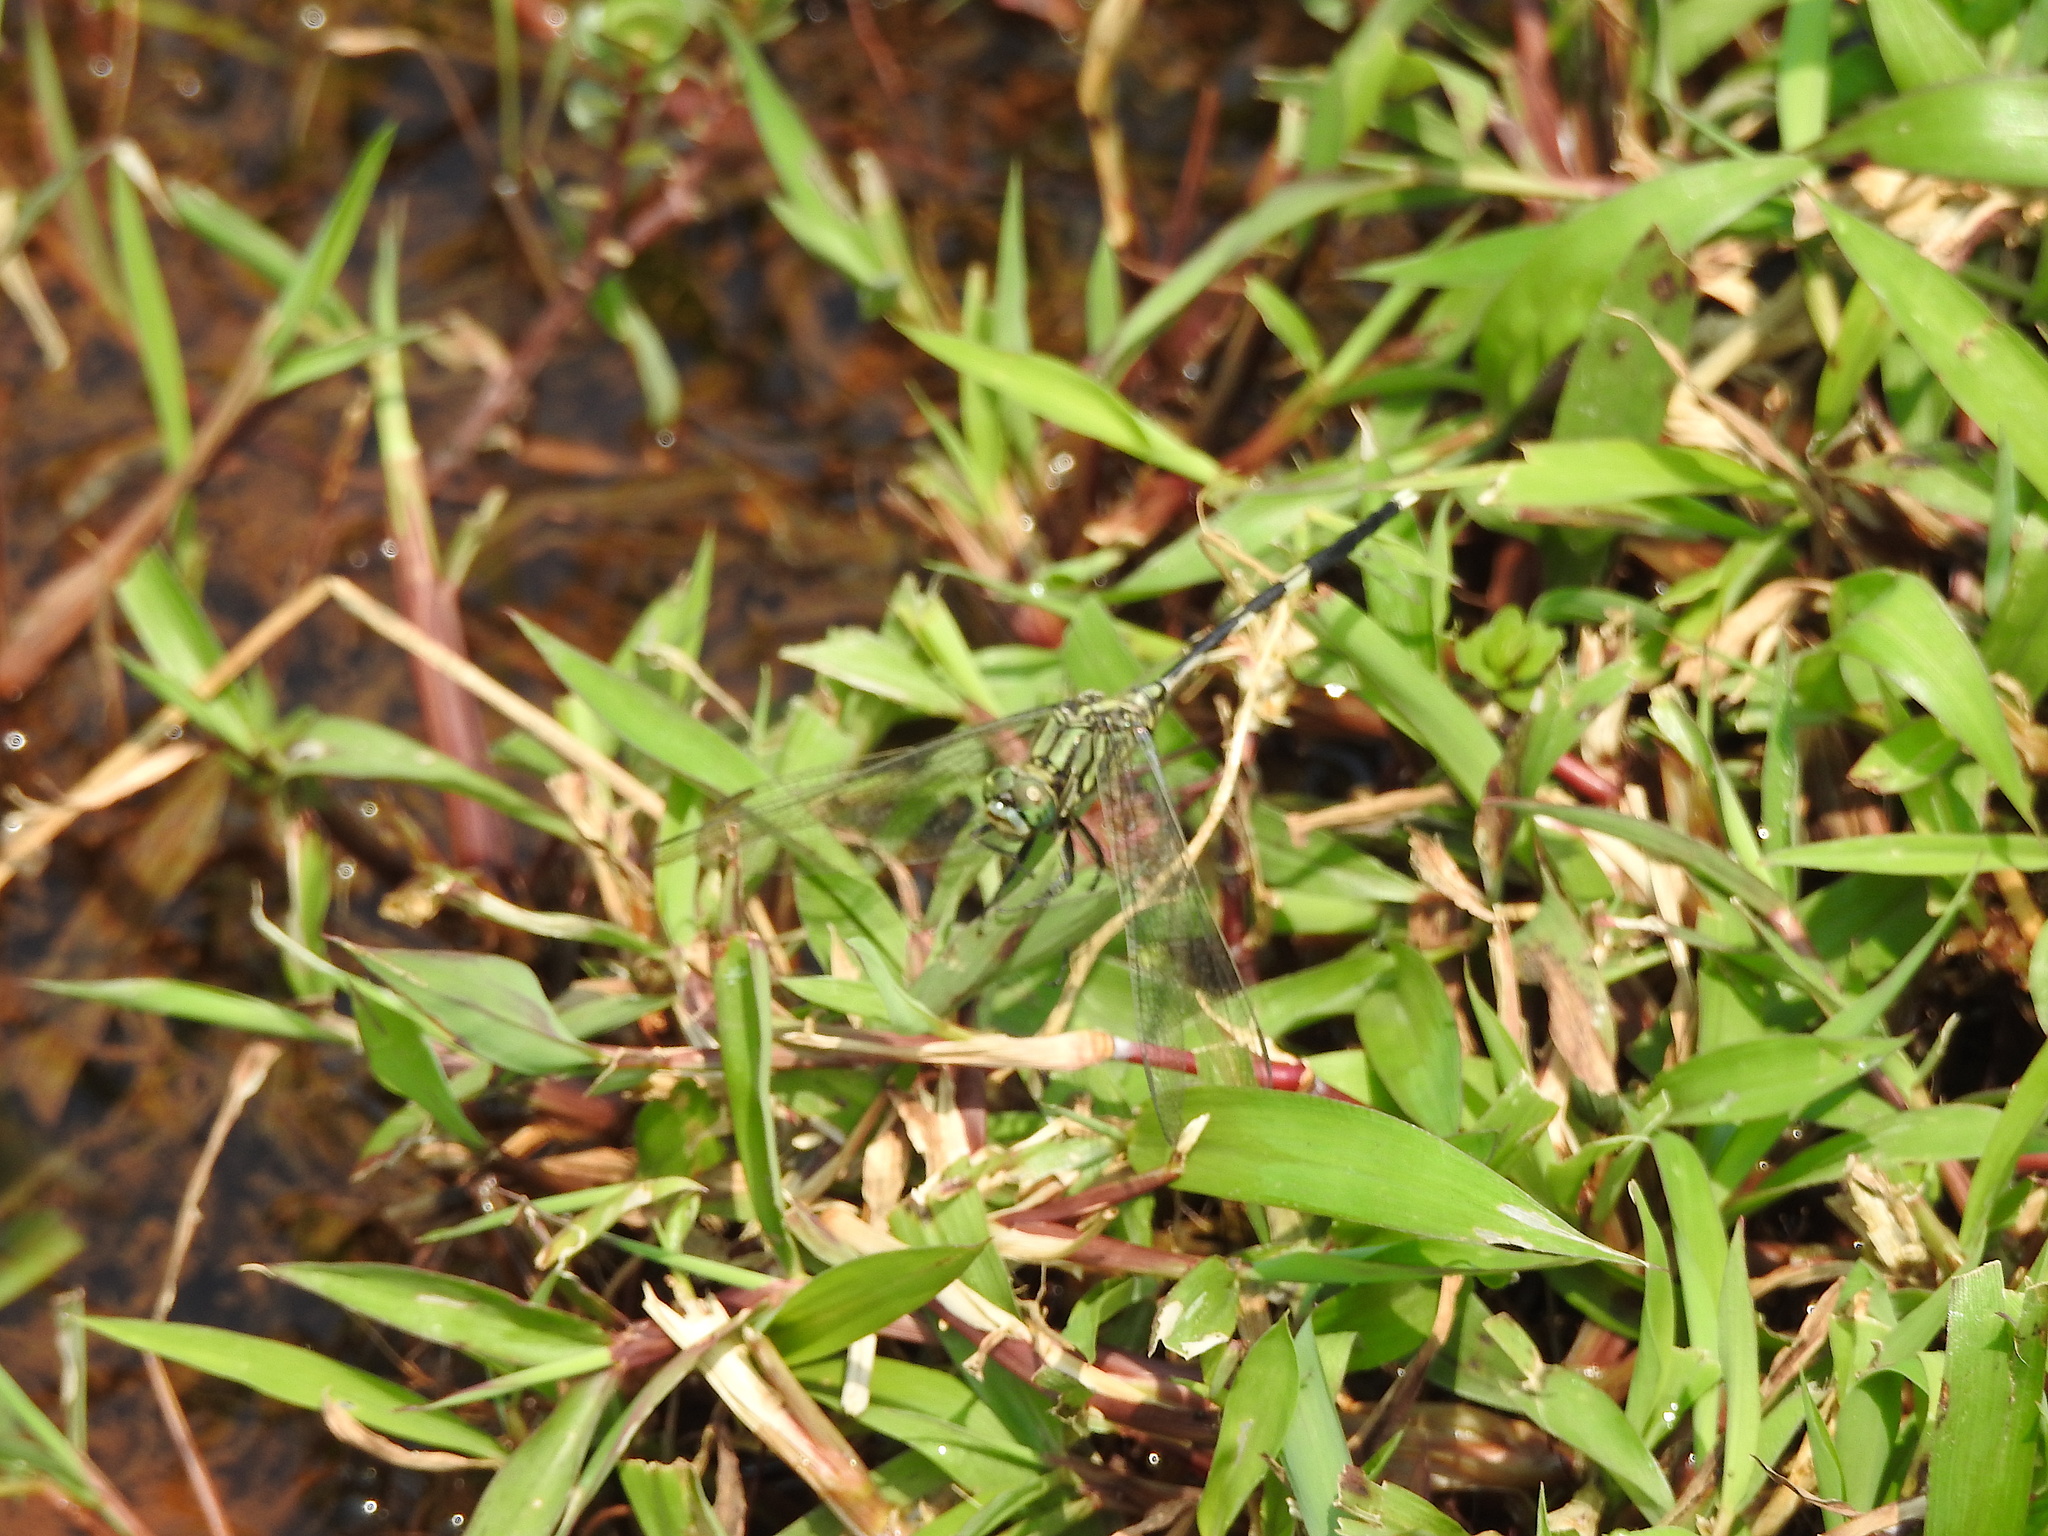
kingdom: Animalia
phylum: Arthropoda
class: Insecta
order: Odonata
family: Libellulidae
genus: Orthetrum
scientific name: Orthetrum sabina
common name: Slender skimmer
